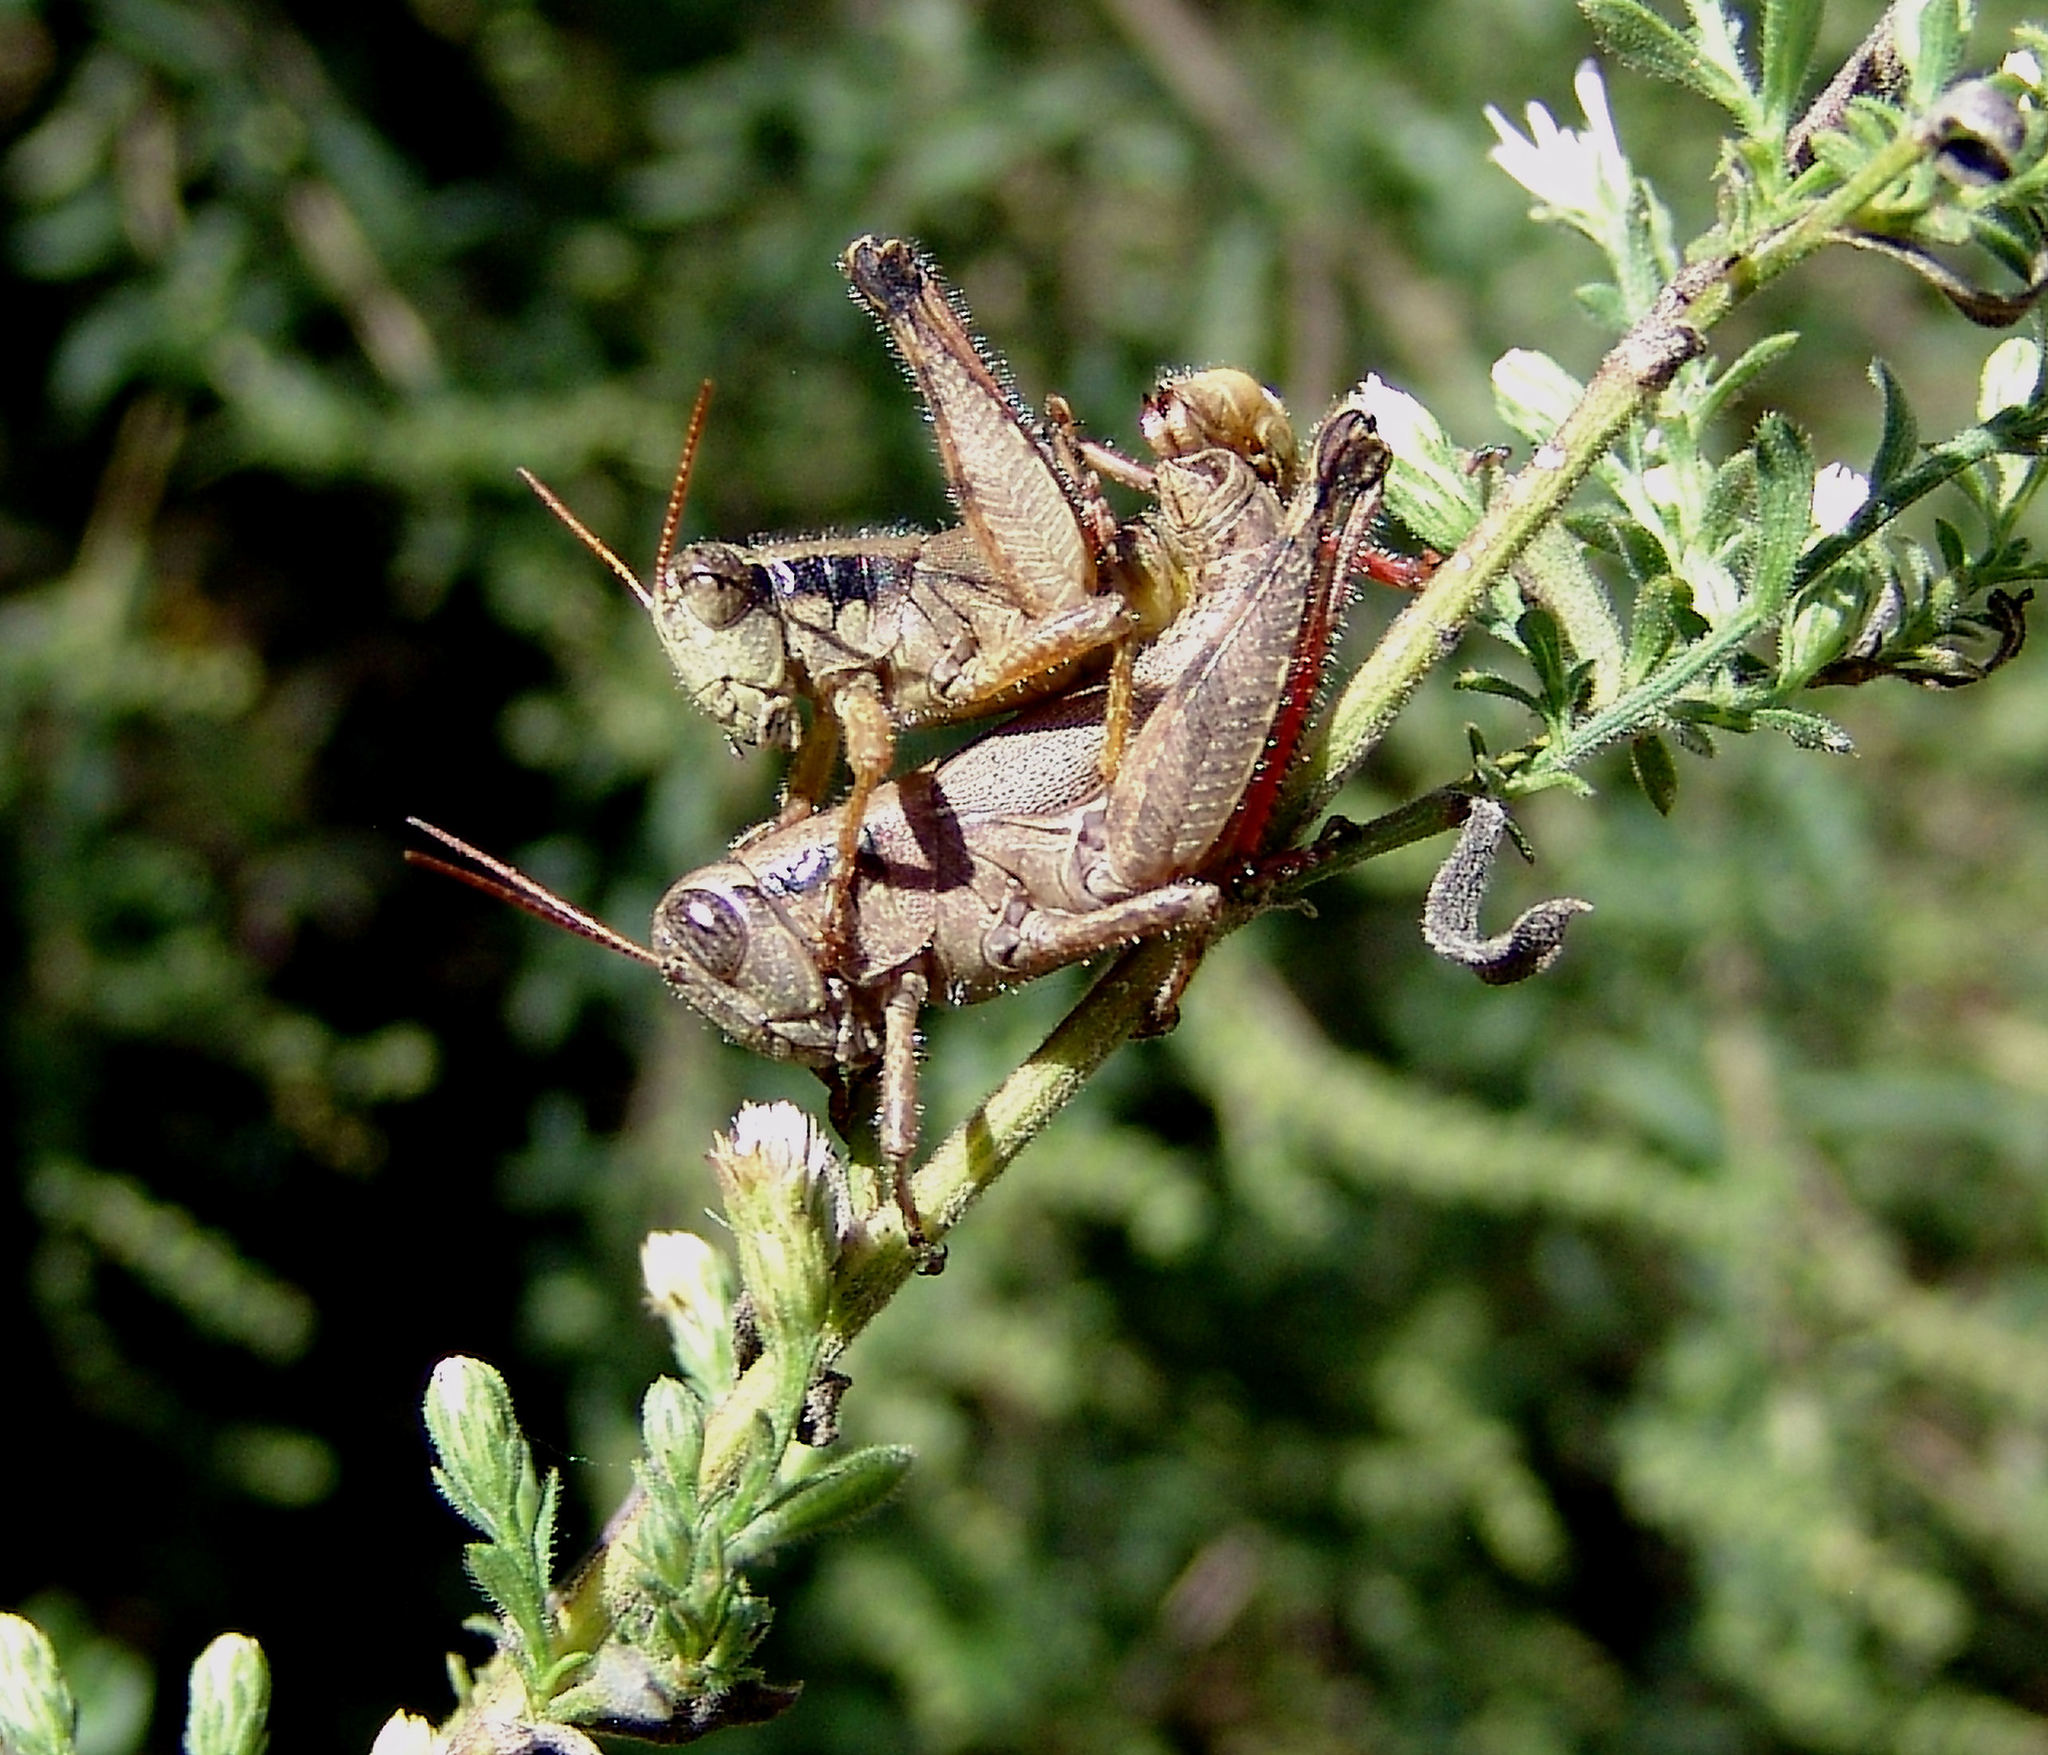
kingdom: Animalia
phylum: Arthropoda
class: Insecta
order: Orthoptera
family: Acrididae
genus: Melanoplus
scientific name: Melanoplus scudderi
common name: Scudder's short-winged locust
